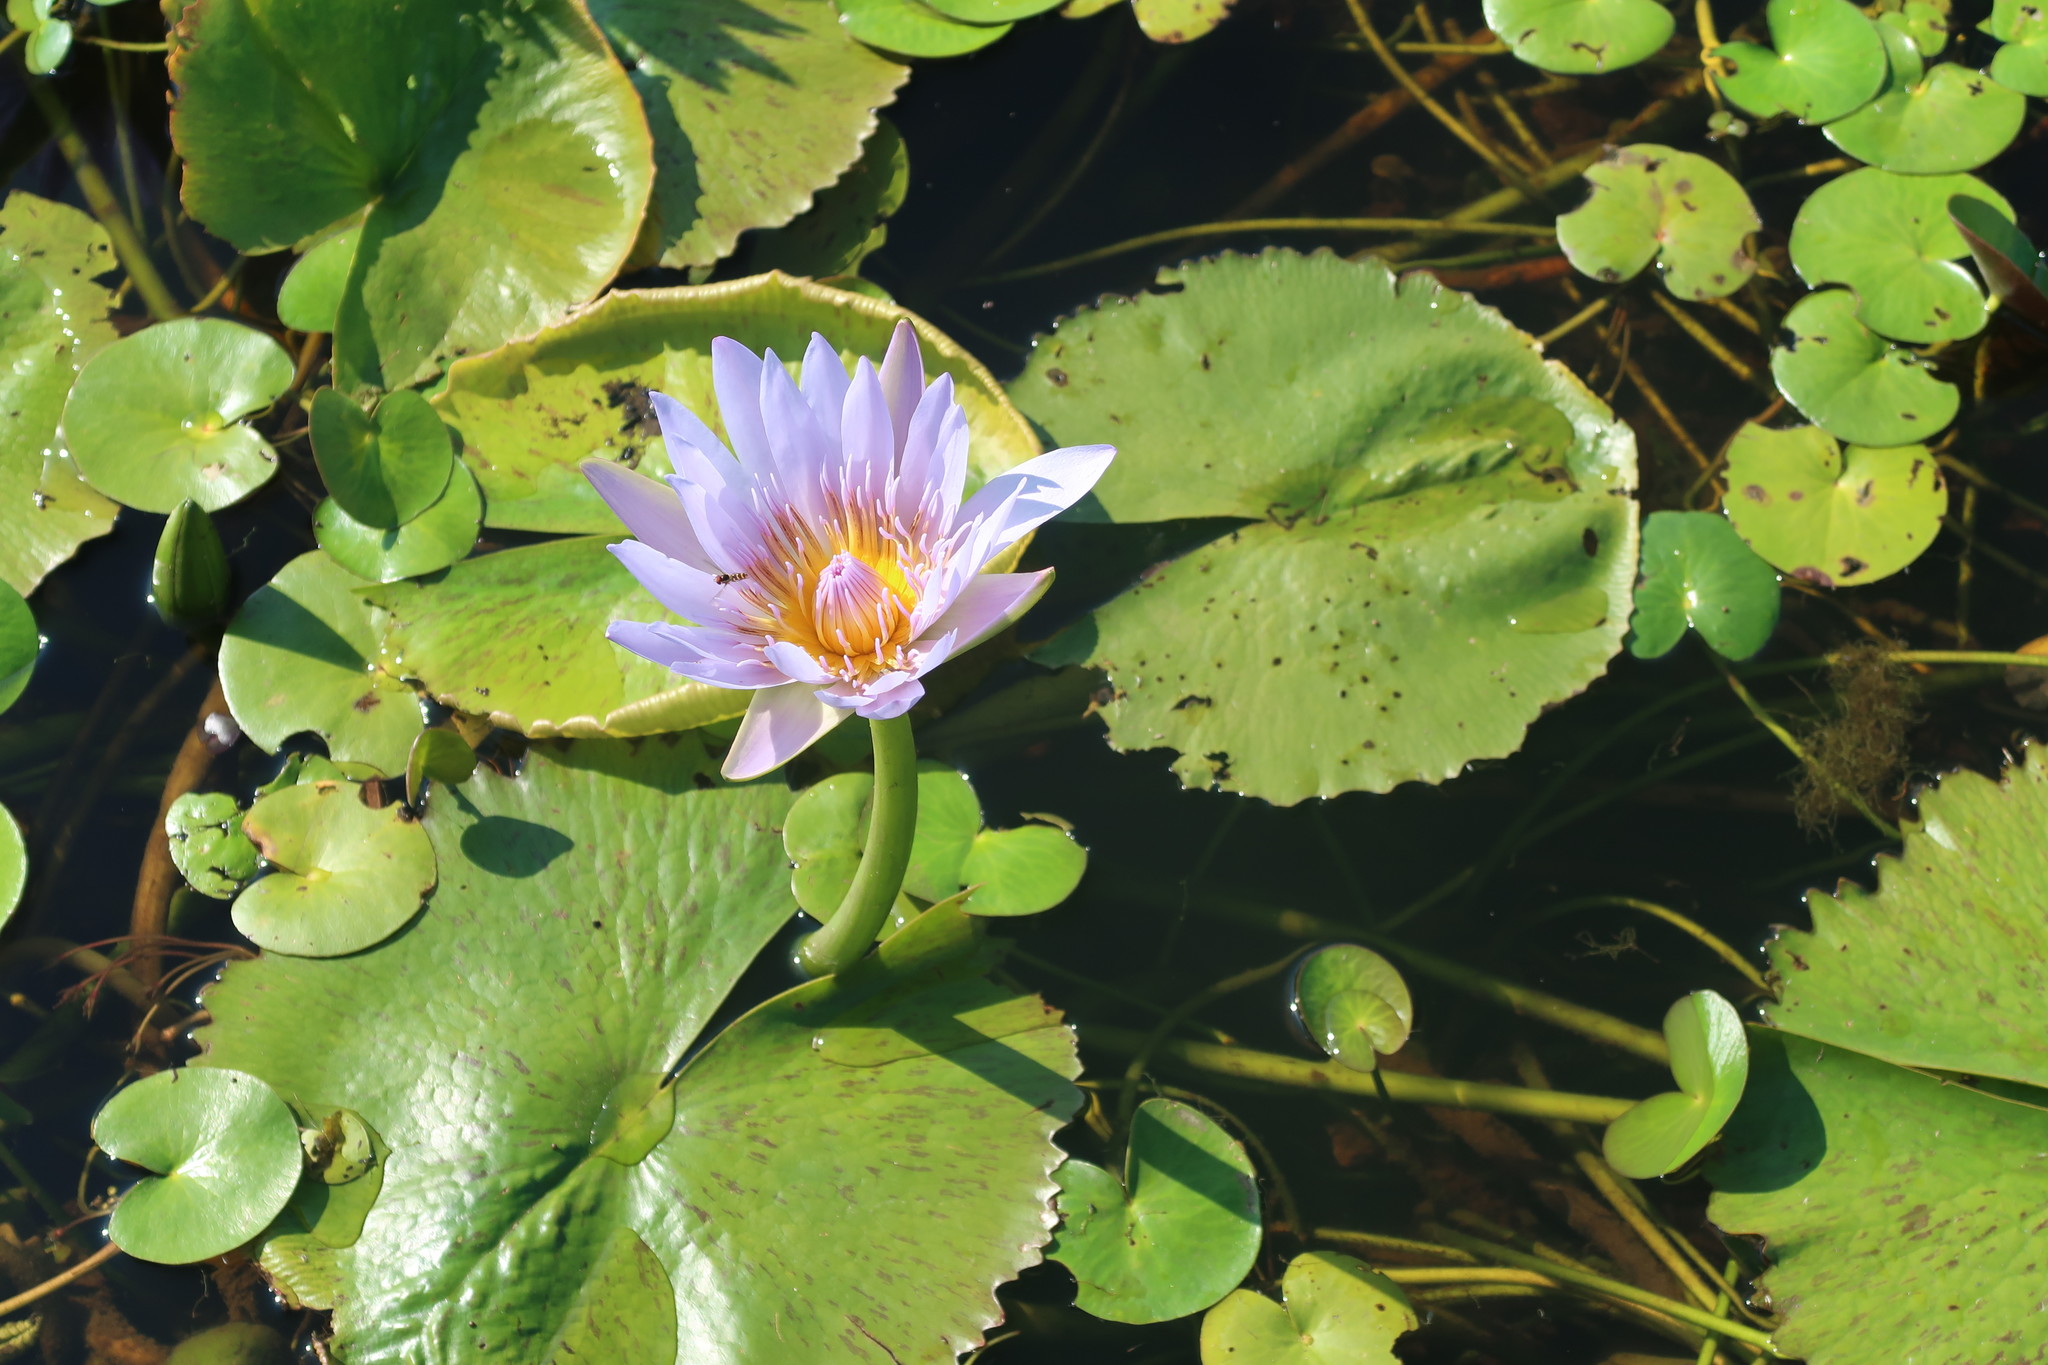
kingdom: Plantae
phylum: Tracheophyta
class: Magnoliopsida
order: Nymphaeales
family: Nymphaeaceae
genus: Nymphaea
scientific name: Nymphaea nouchali
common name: Blue lotus
